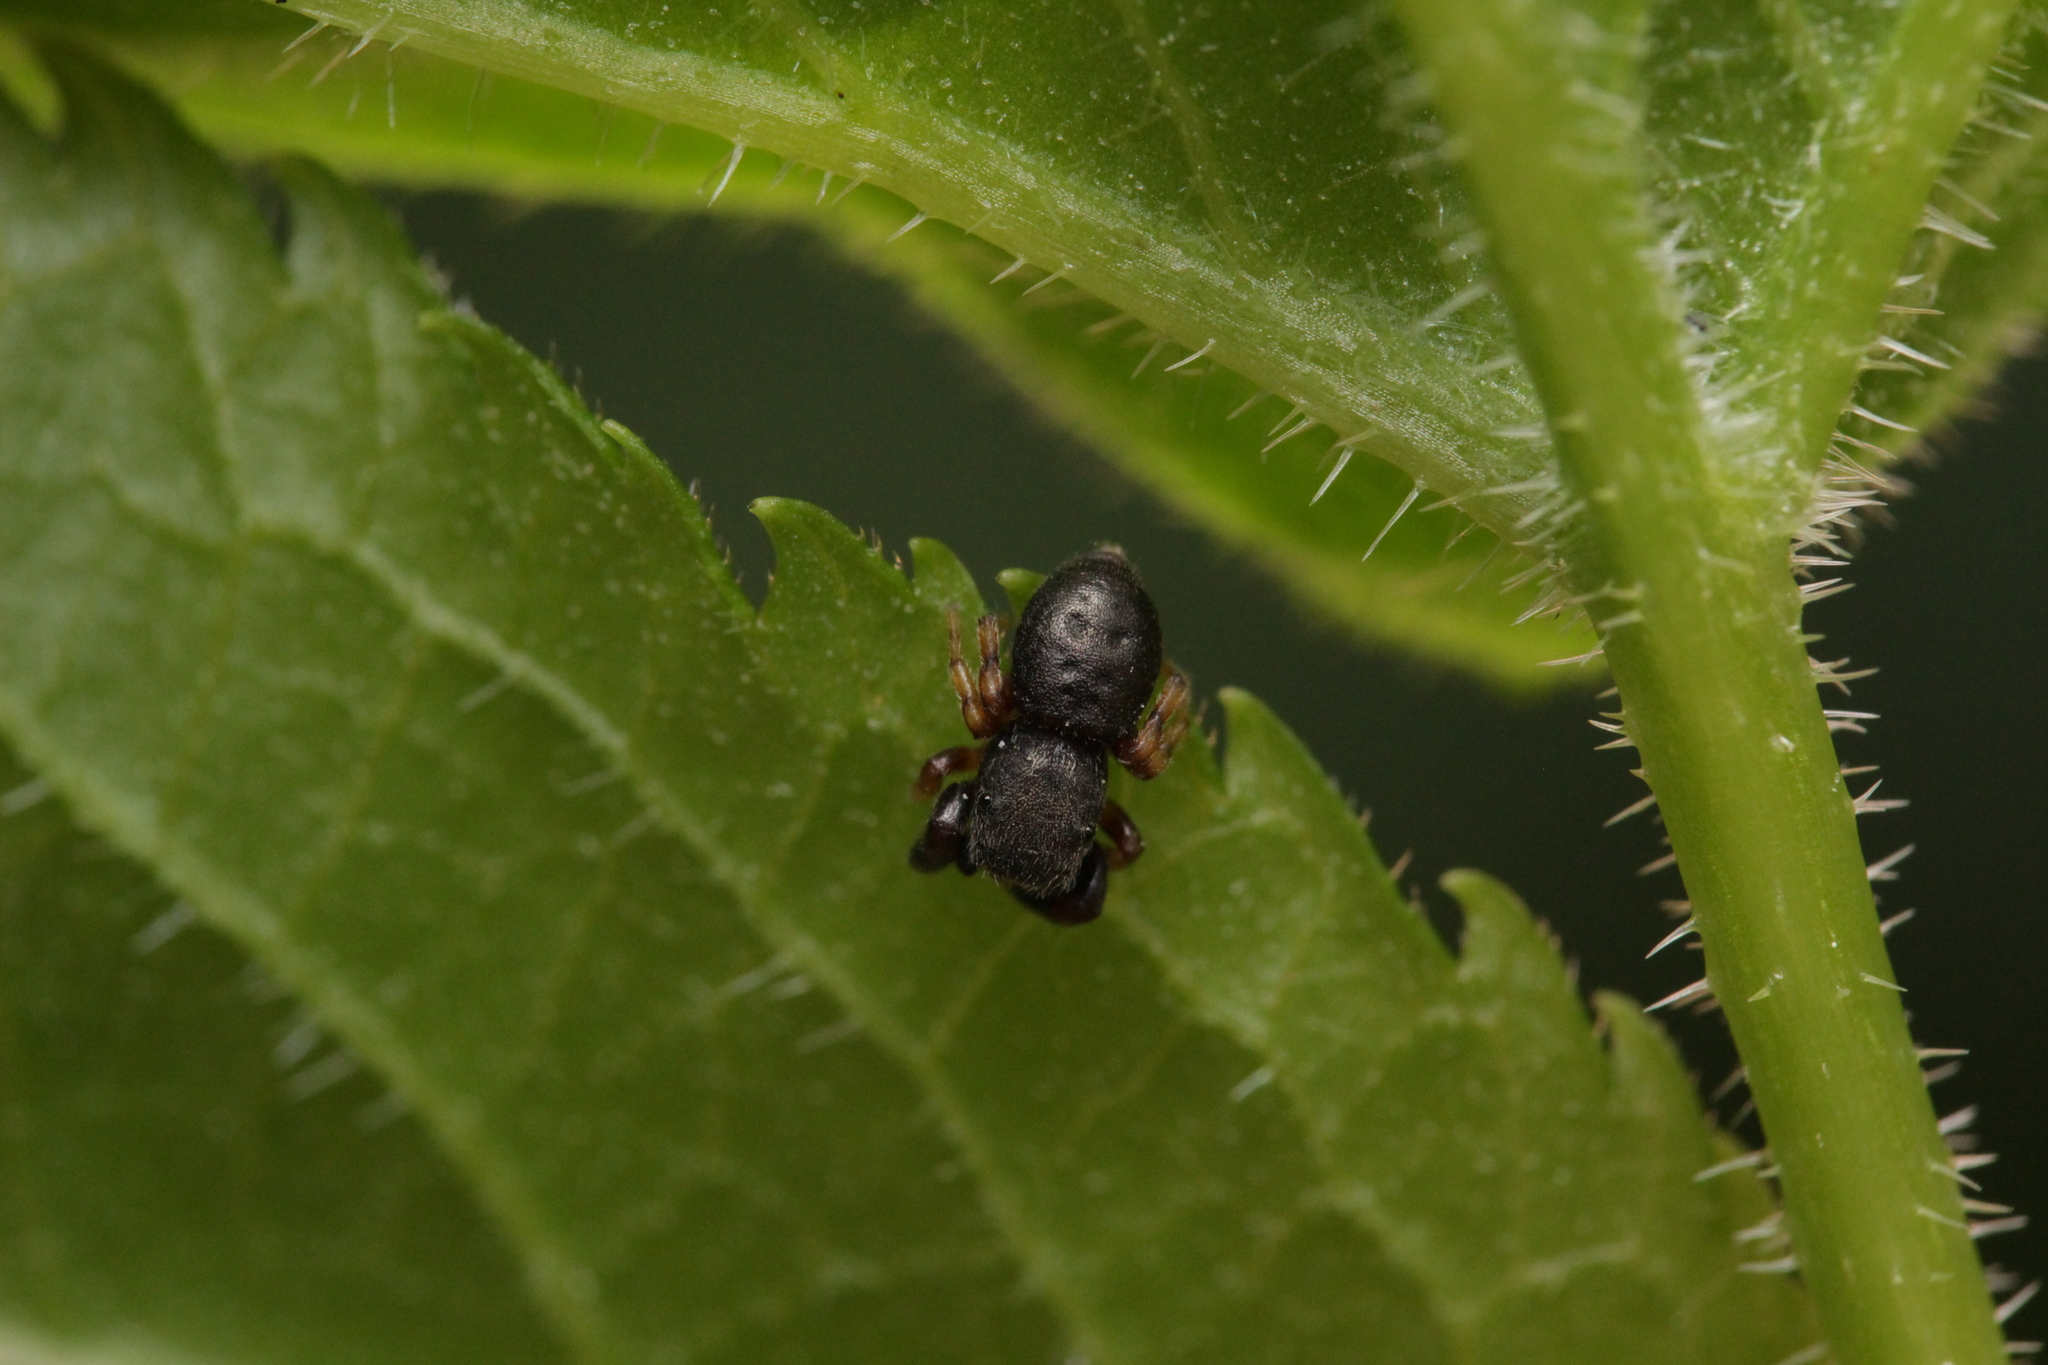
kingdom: Animalia
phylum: Arthropoda
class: Arachnida
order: Araneae
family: Salticidae
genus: Ballus
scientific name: Ballus chalybeius
